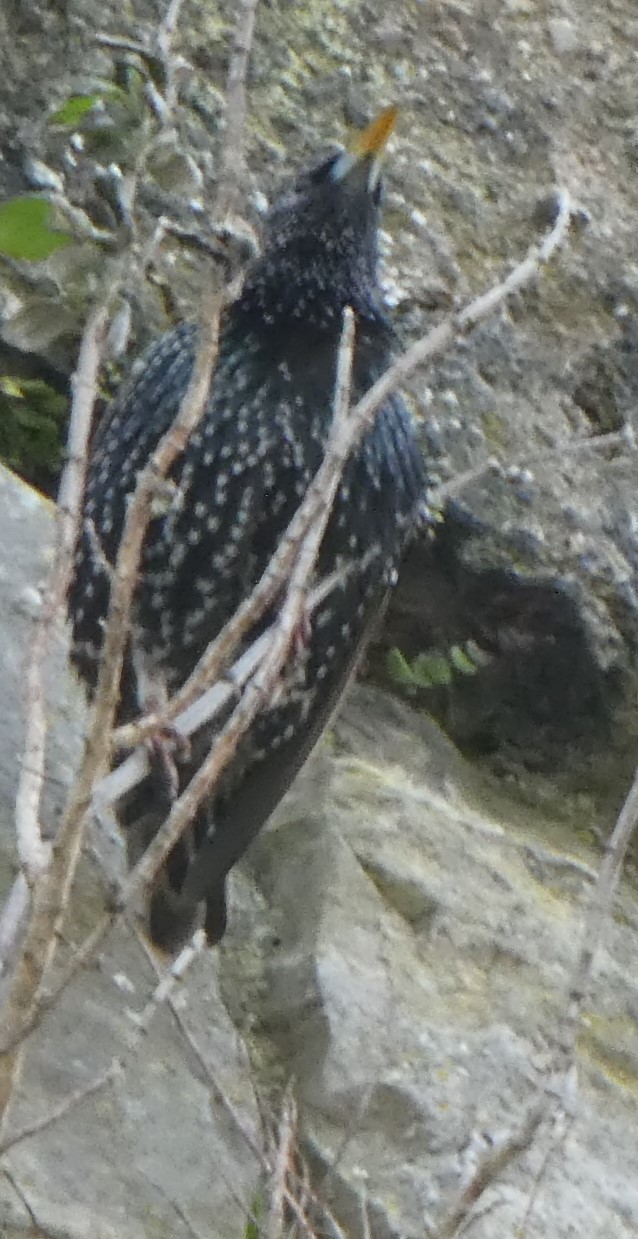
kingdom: Animalia
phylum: Chordata
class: Aves
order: Passeriformes
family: Sturnidae
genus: Sturnus
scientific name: Sturnus vulgaris
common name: Common starling
